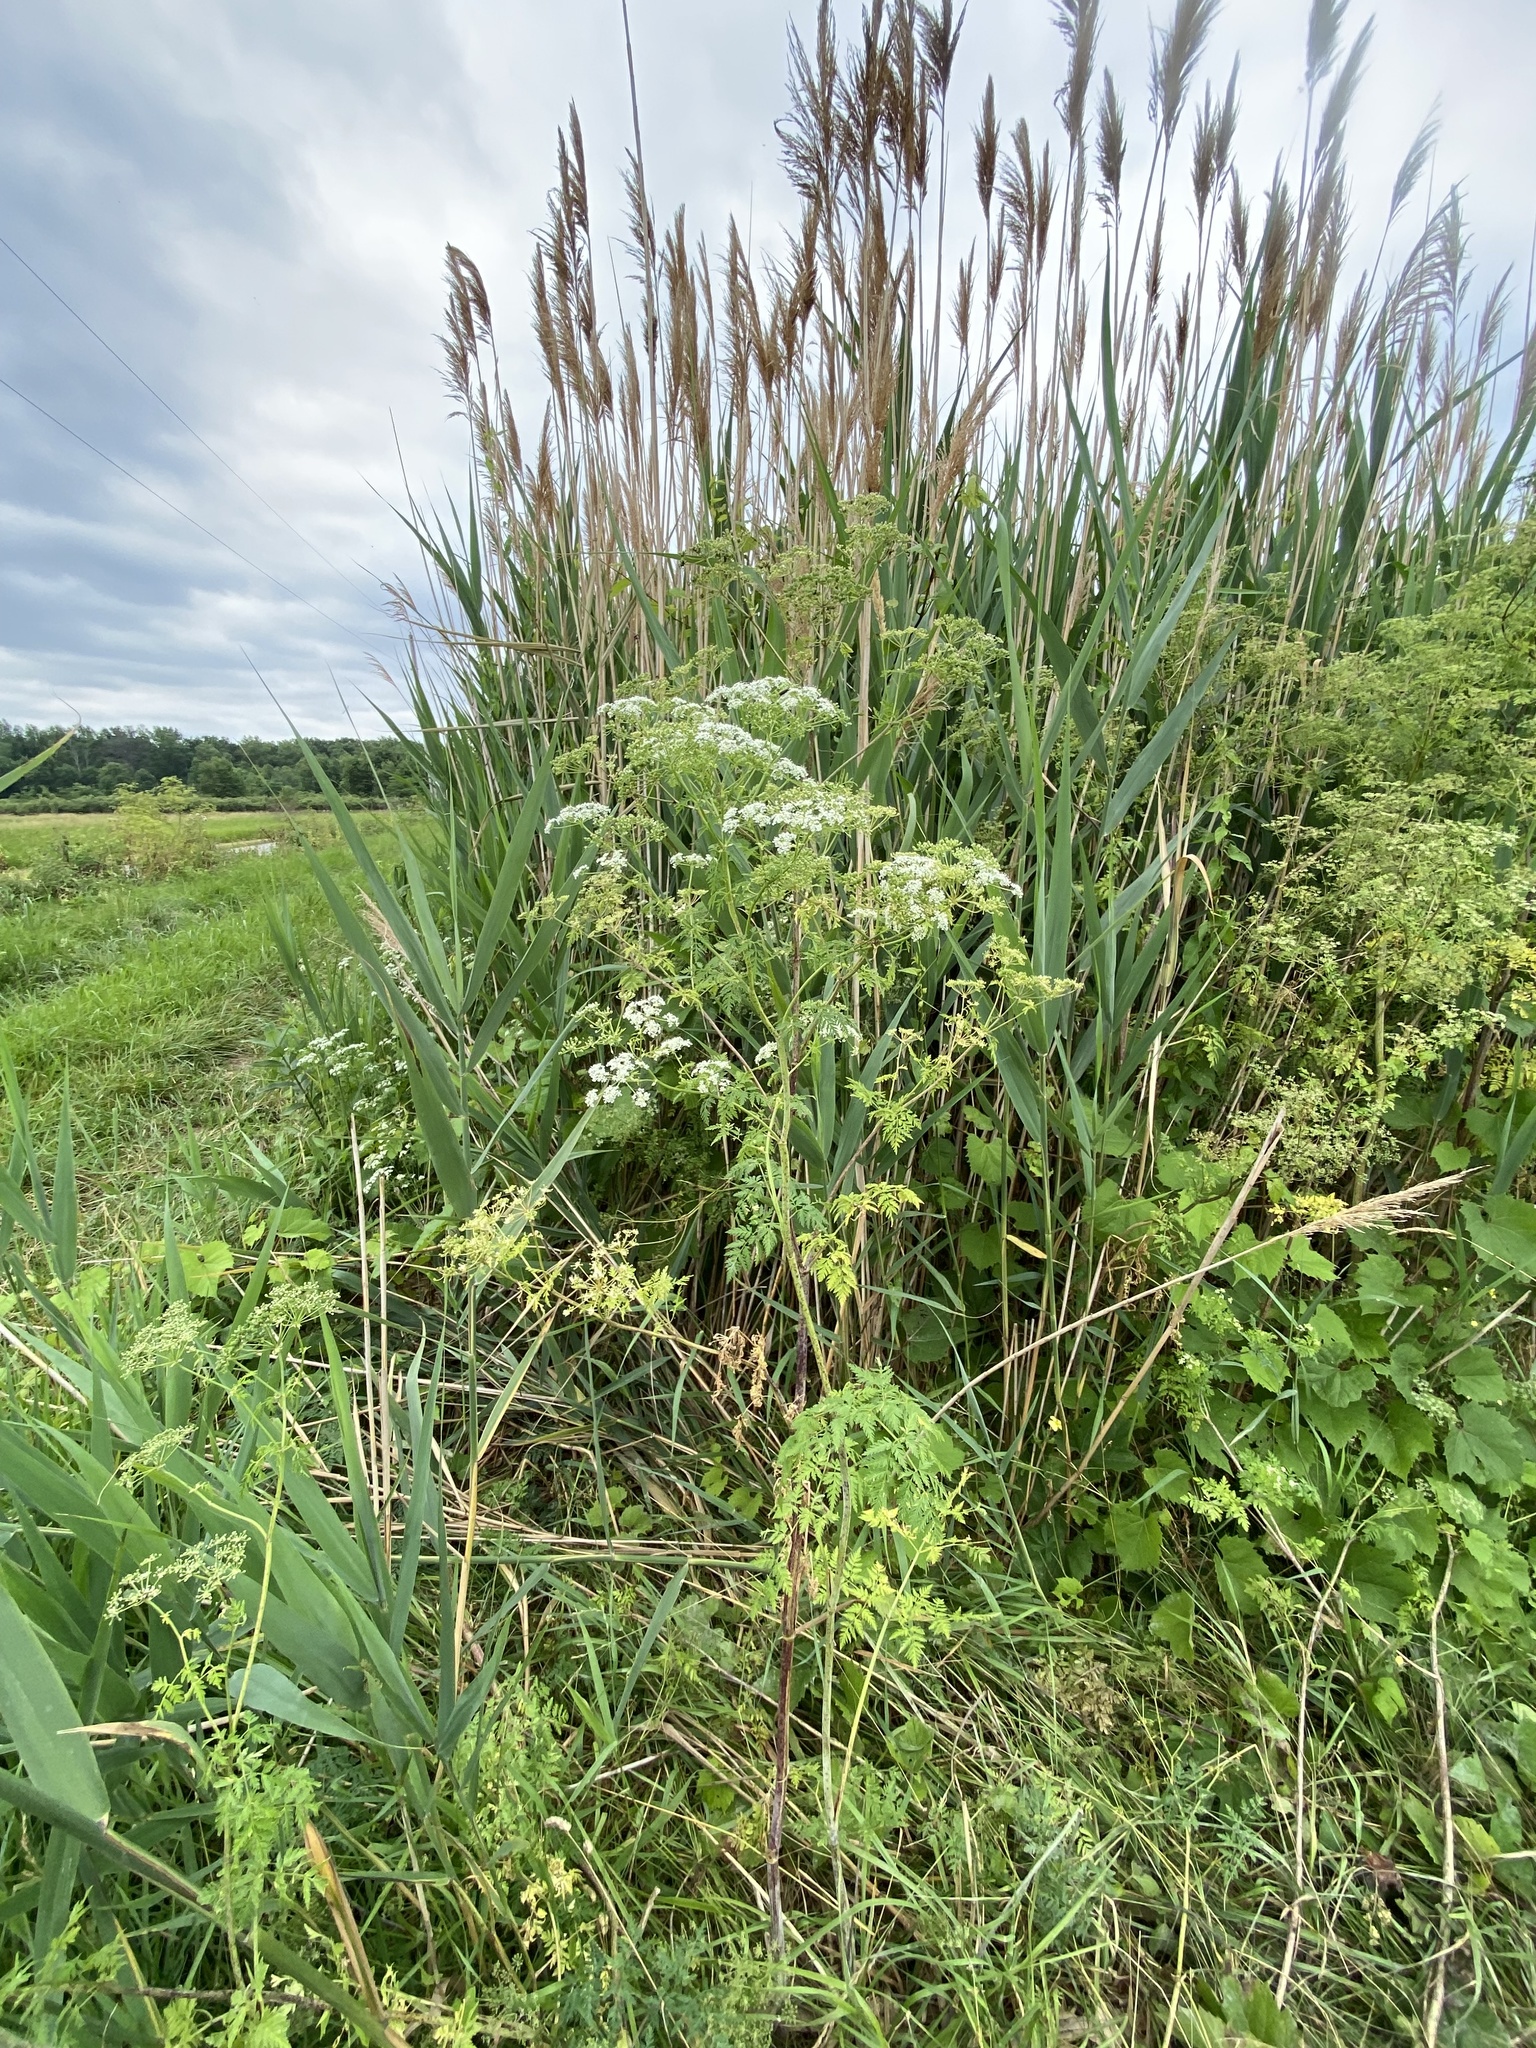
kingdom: Plantae
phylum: Tracheophyta
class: Magnoliopsida
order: Apiales
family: Apiaceae
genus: Conium
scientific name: Conium maculatum
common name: Hemlock
